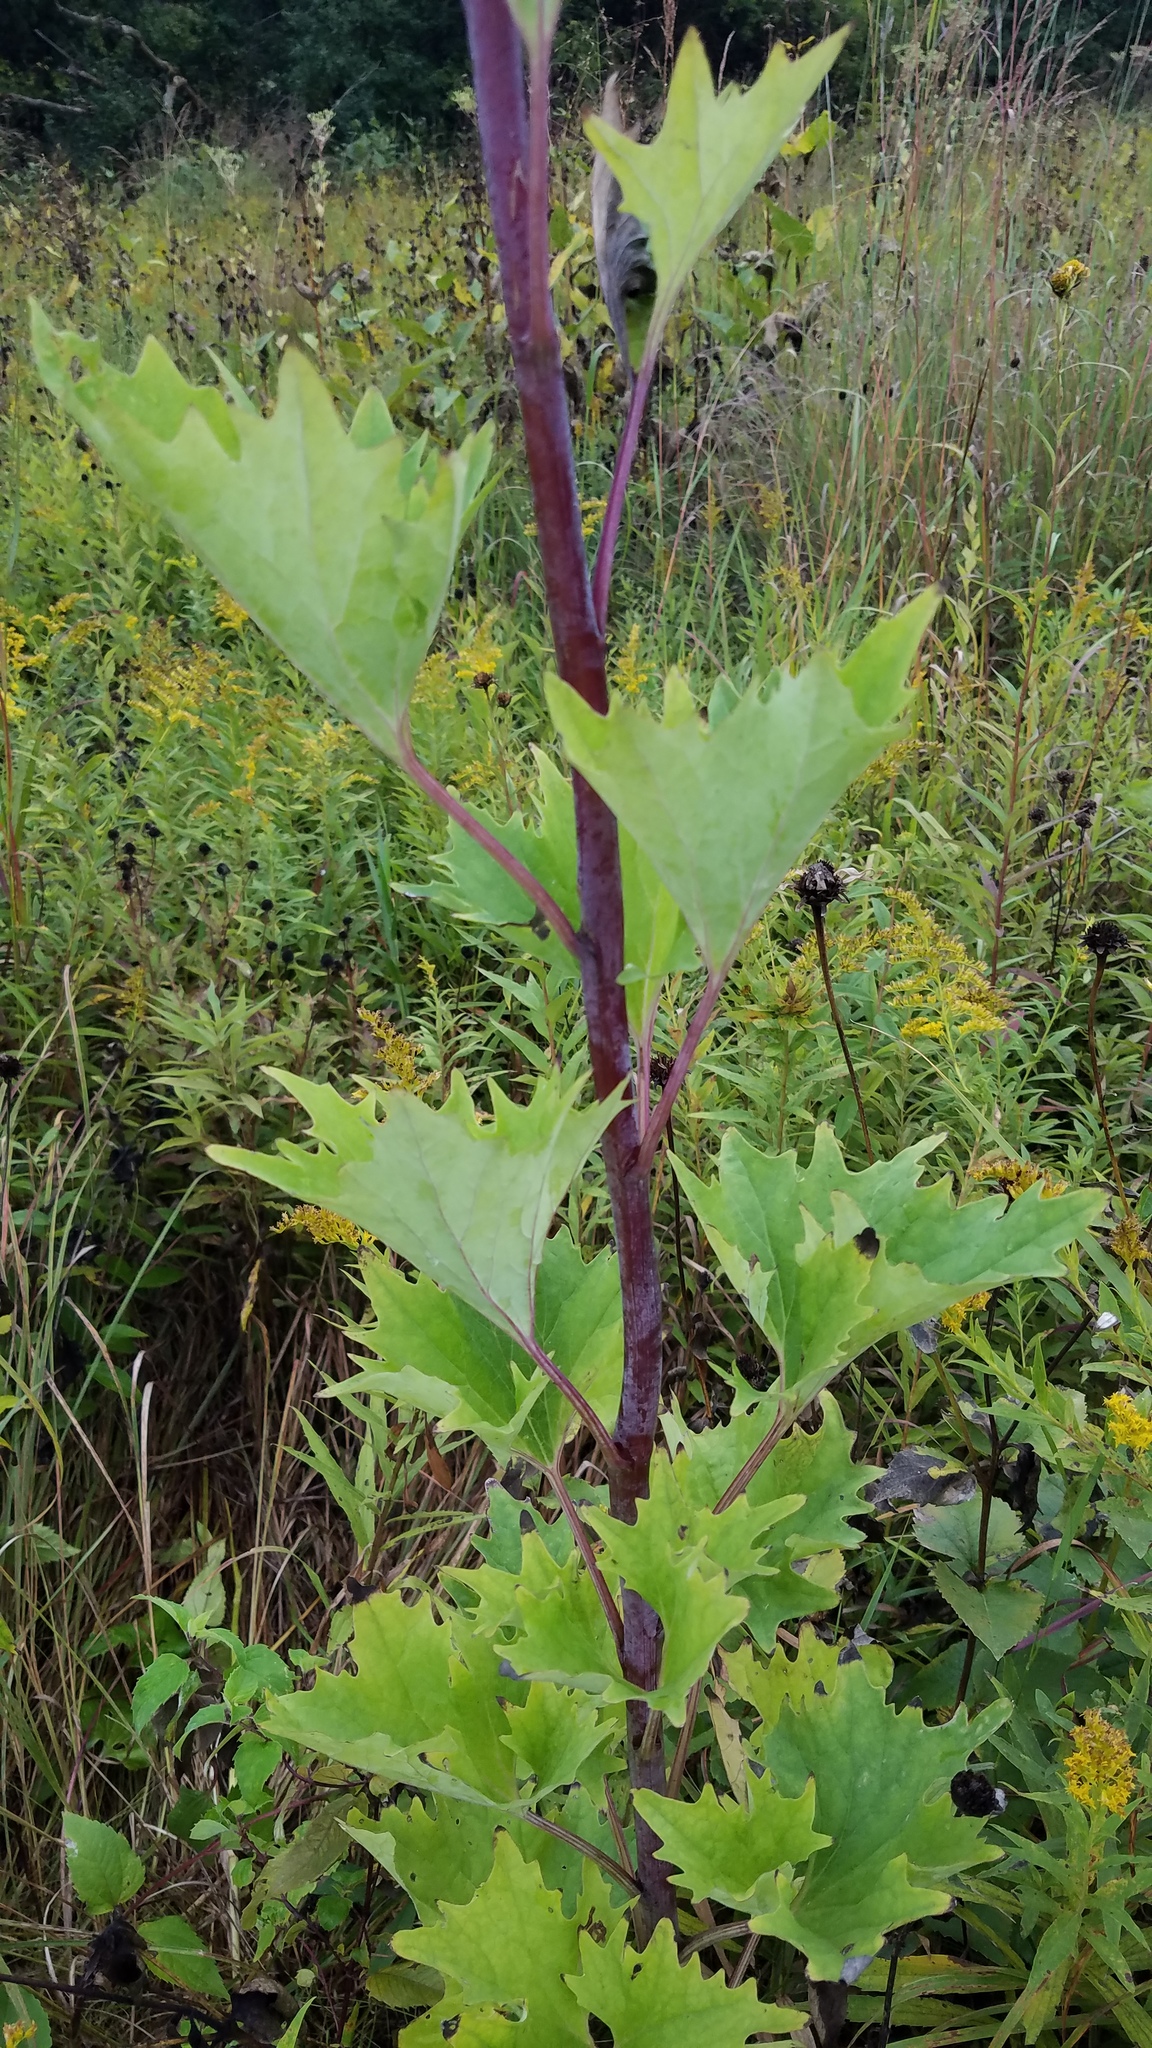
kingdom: Plantae
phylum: Tracheophyta
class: Magnoliopsida
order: Asterales
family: Asteraceae
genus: Arnoglossum
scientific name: Arnoglossum atriplicifolium
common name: Pale indian-plantain
